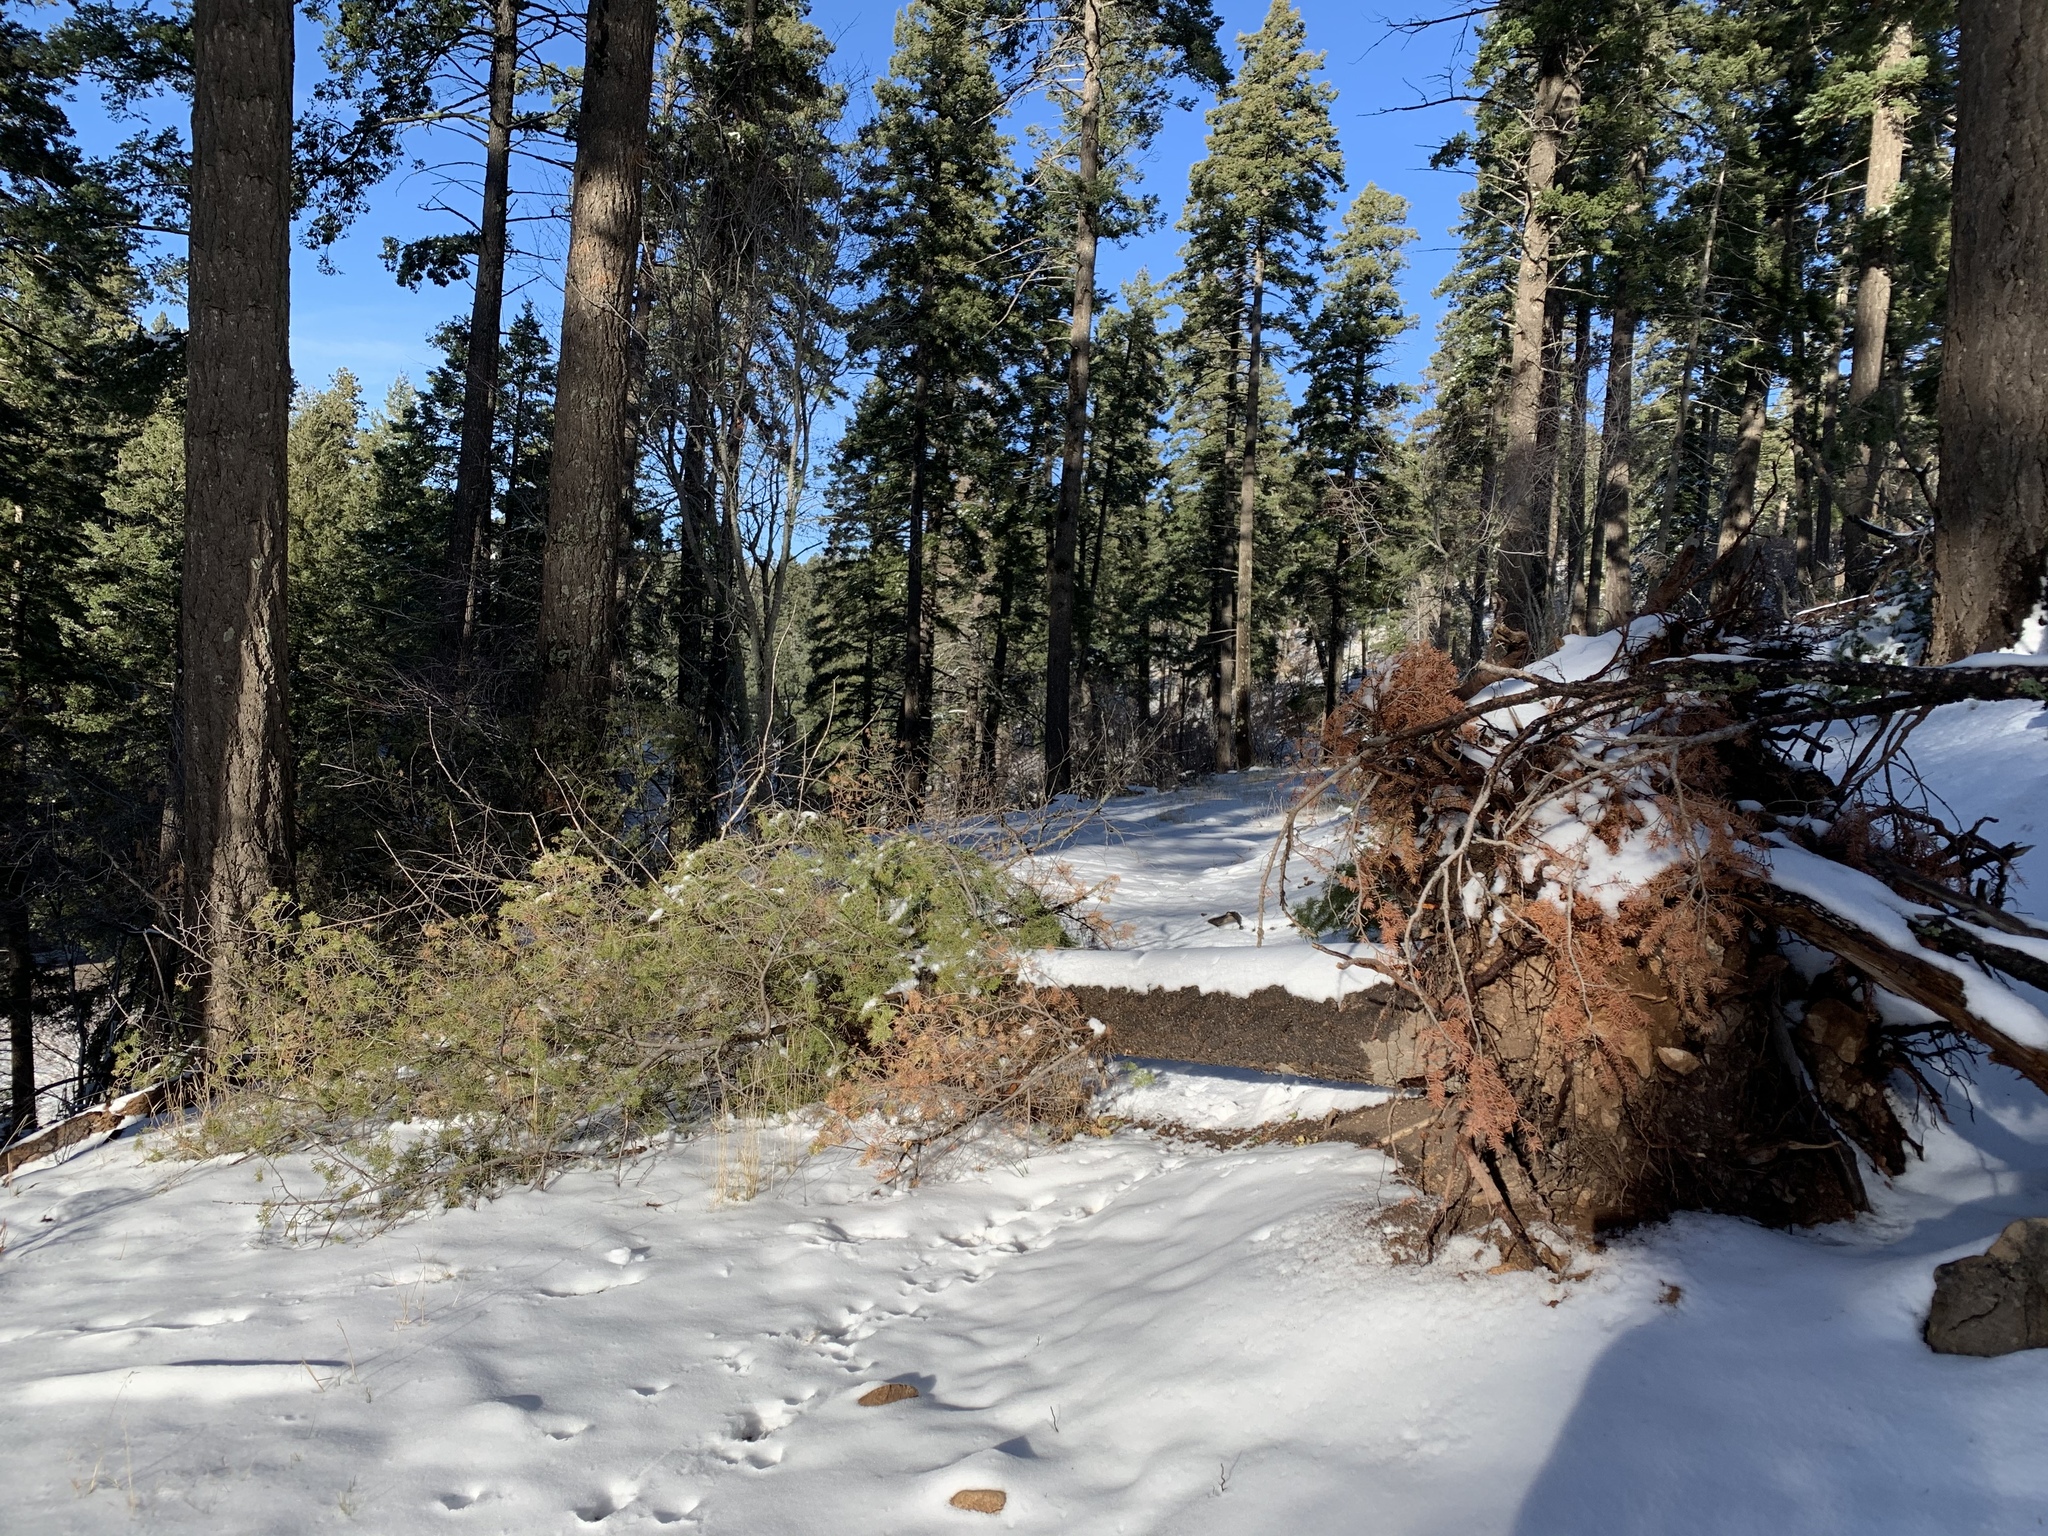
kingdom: Plantae
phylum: Tracheophyta
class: Pinopsida
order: Pinales
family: Pinaceae
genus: Abies
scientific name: Abies concolor
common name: Colorado fir
